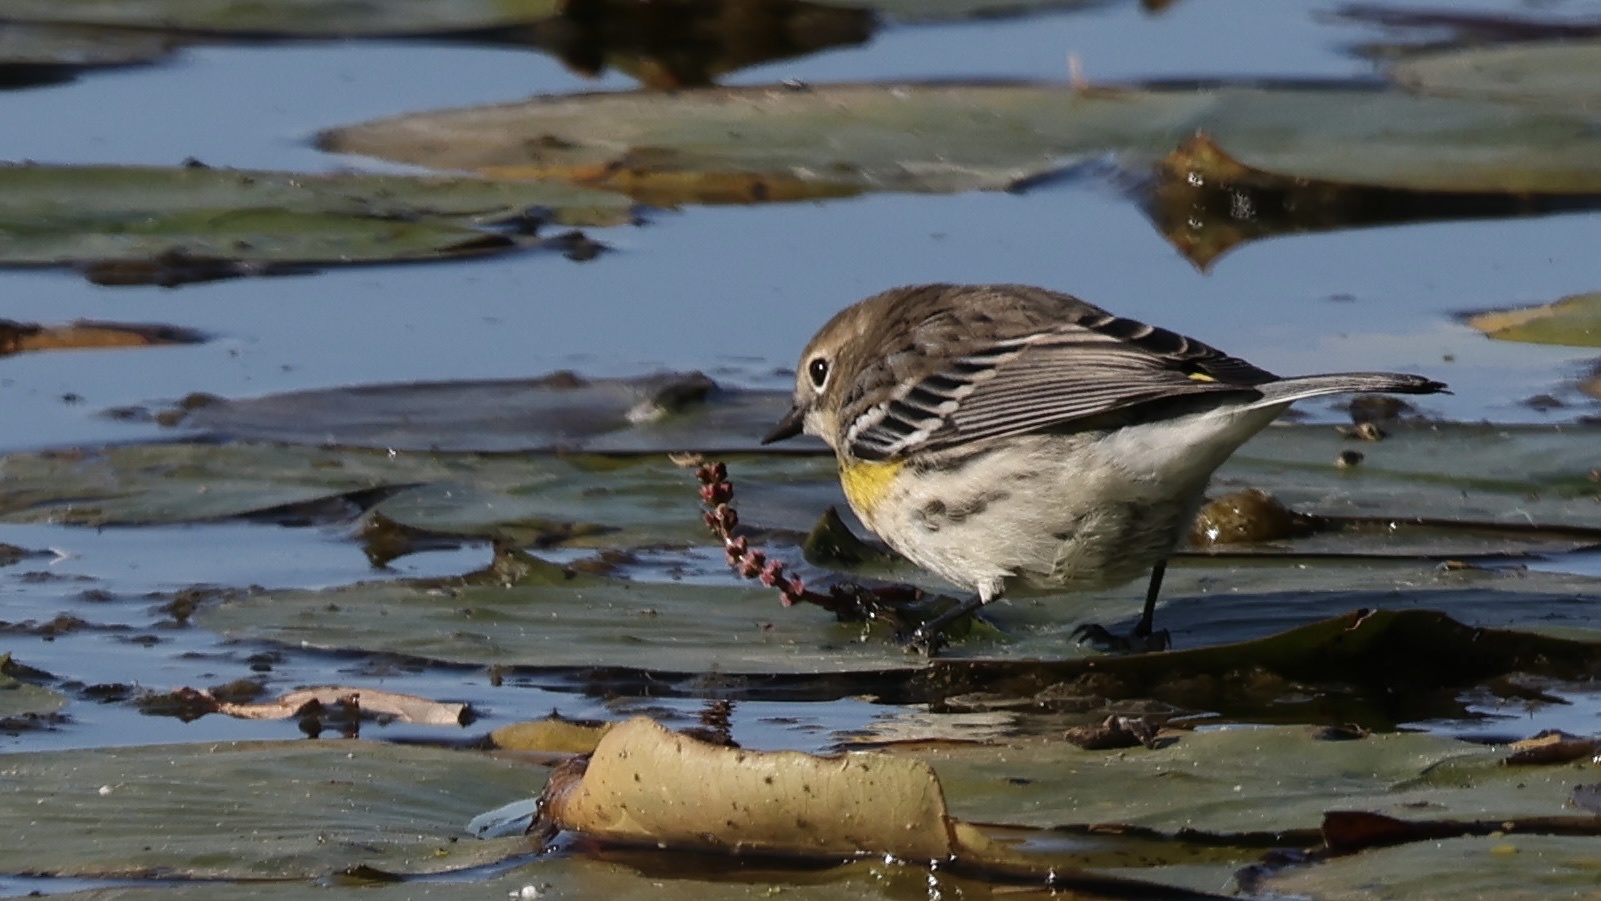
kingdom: Animalia
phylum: Chordata
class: Aves
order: Passeriformes
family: Parulidae
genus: Setophaga
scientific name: Setophaga coronata
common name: Myrtle warbler
